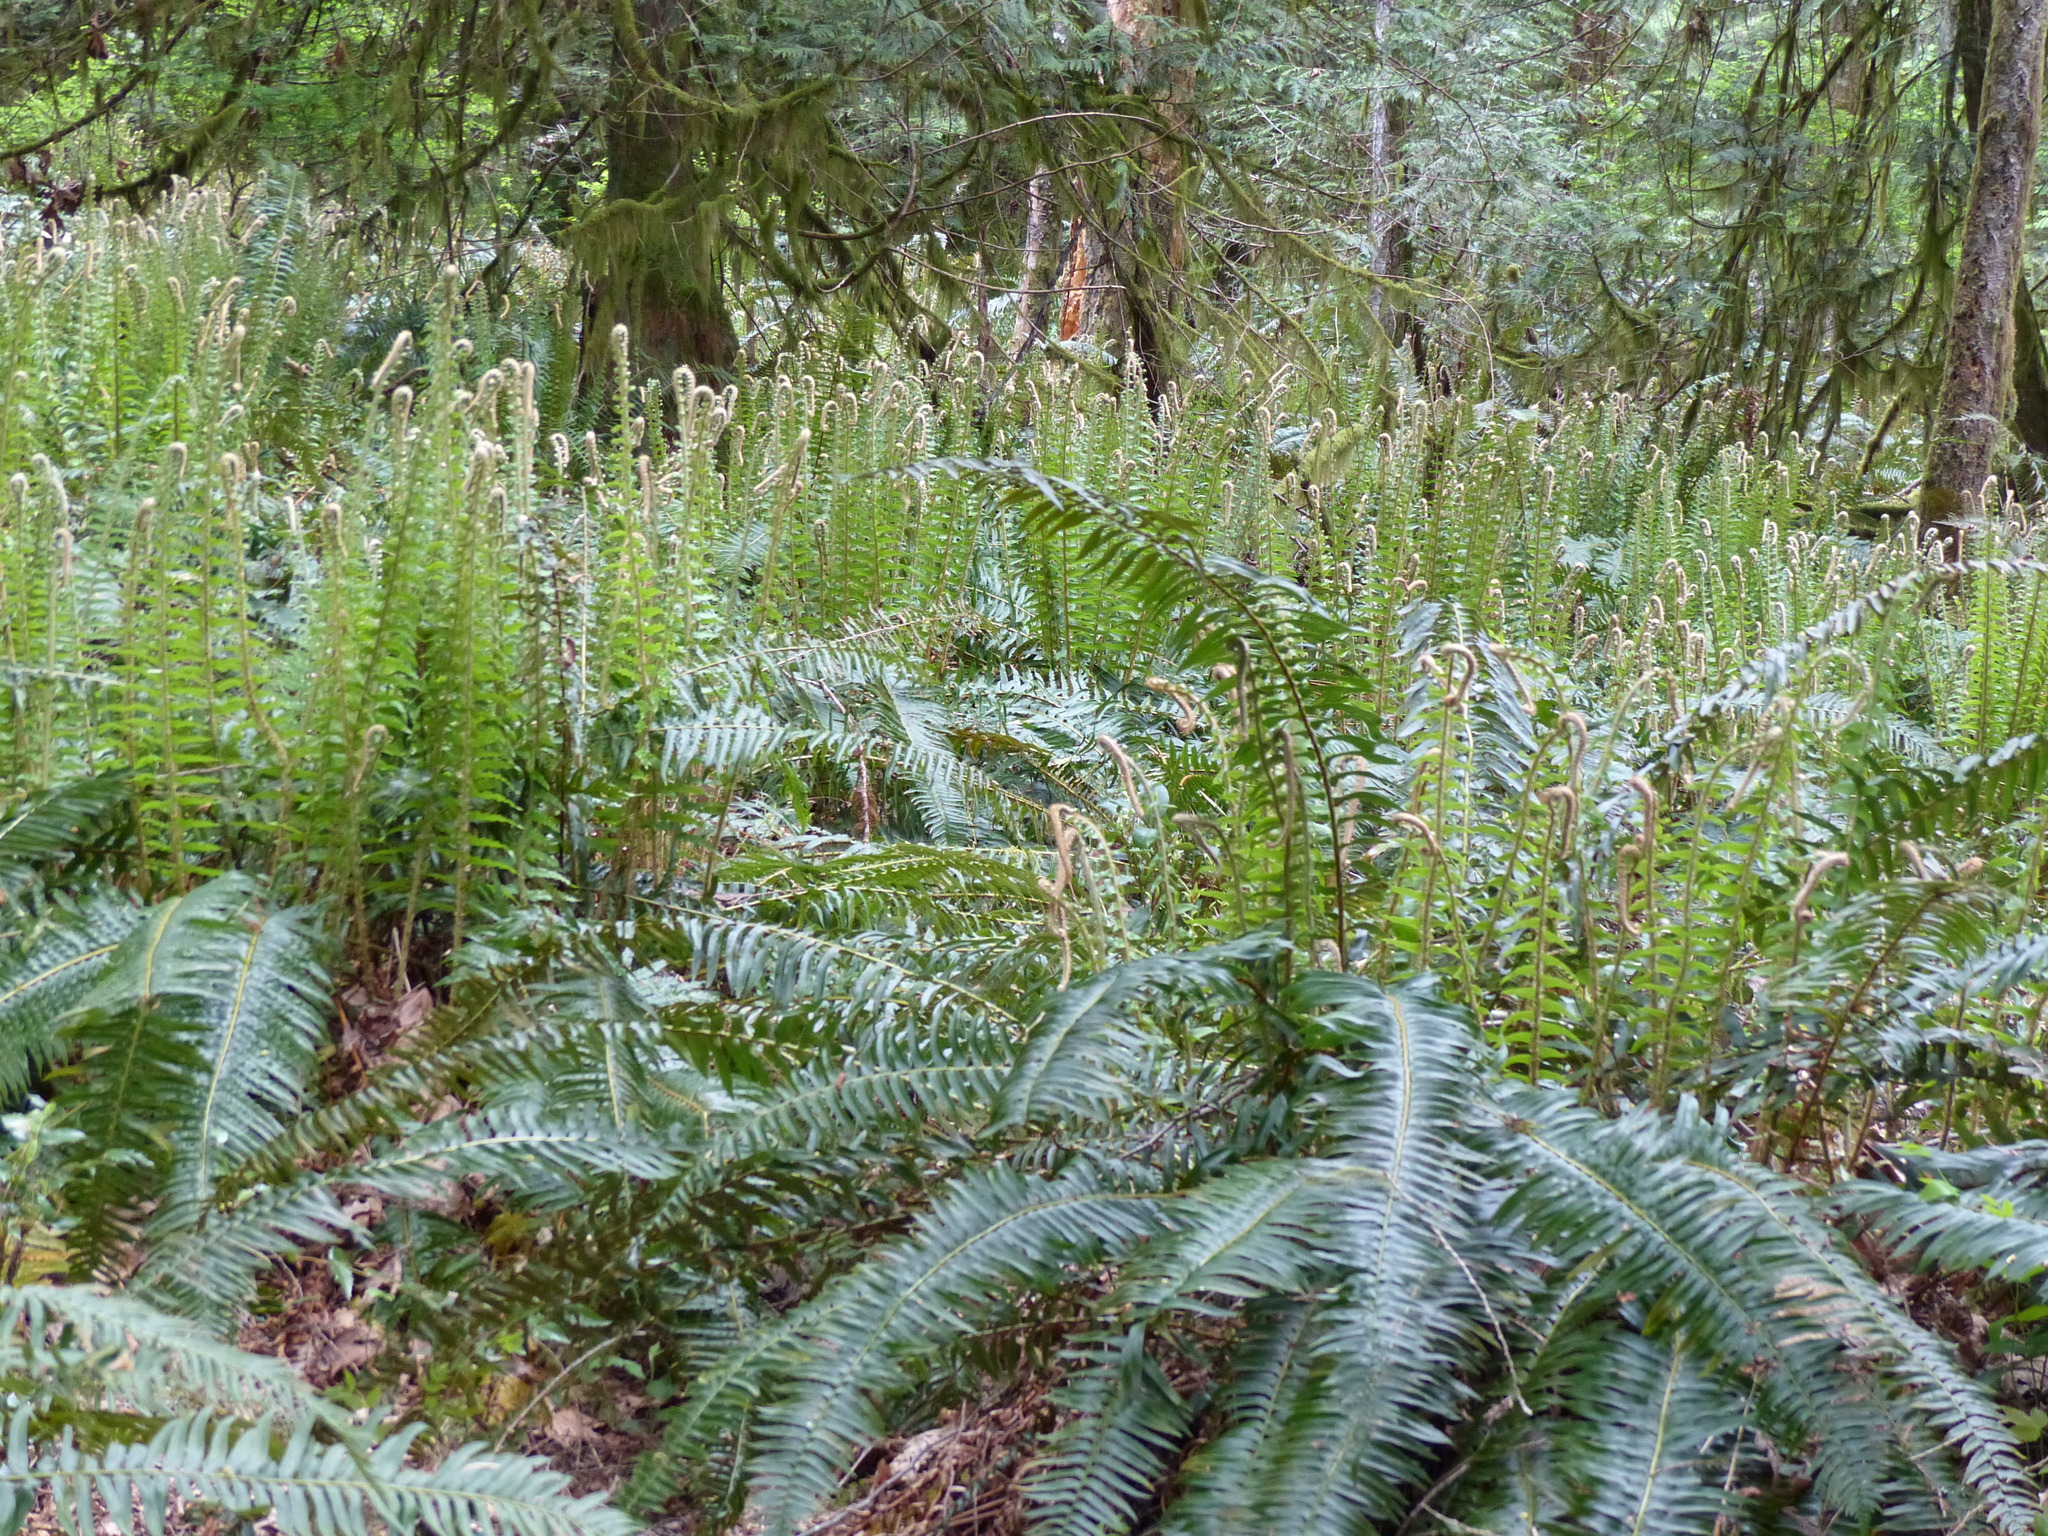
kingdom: Plantae
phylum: Tracheophyta
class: Polypodiopsida
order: Polypodiales
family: Dryopteridaceae
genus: Polystichum
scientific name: Polystichum munitum
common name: Western sword-fern
